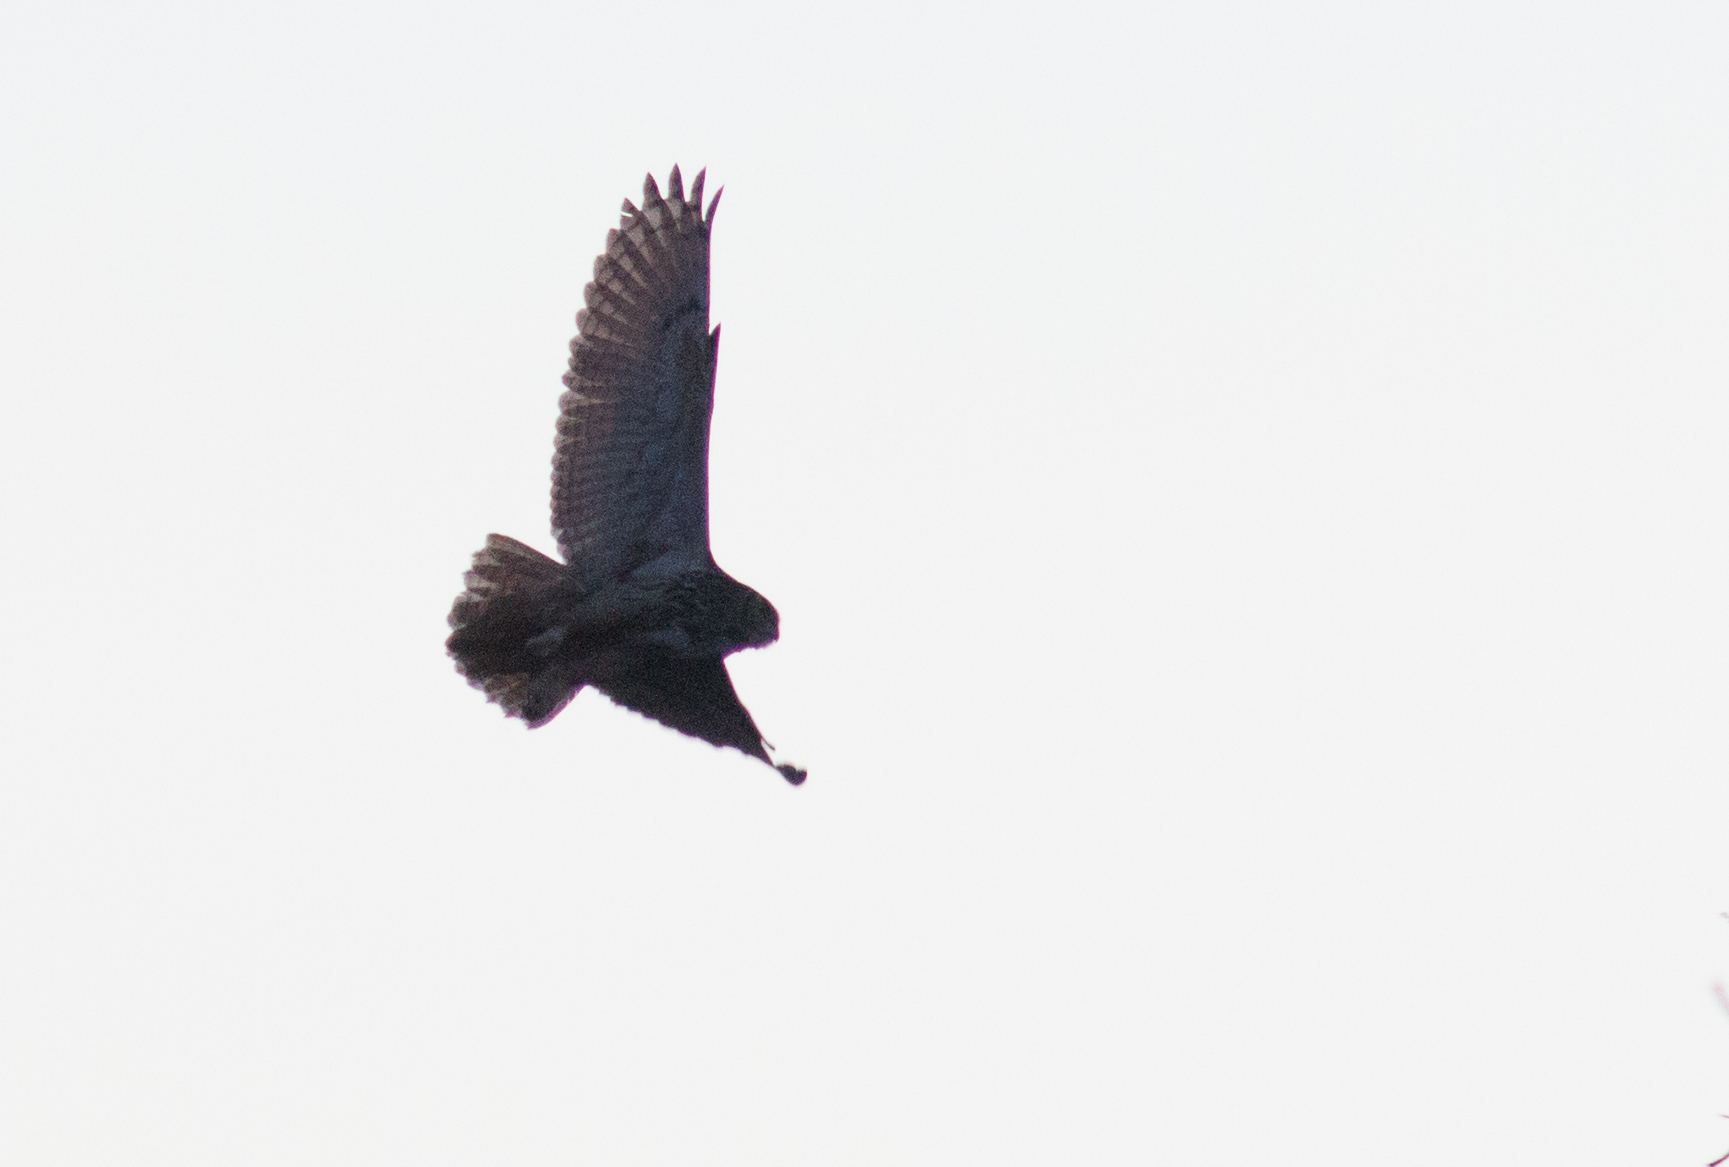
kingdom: Animalia
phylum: Chordata
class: Aves
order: Strigiformes
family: Strigidae
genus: Bubo
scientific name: Bubo bubo
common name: Eurasian eagle-owl
